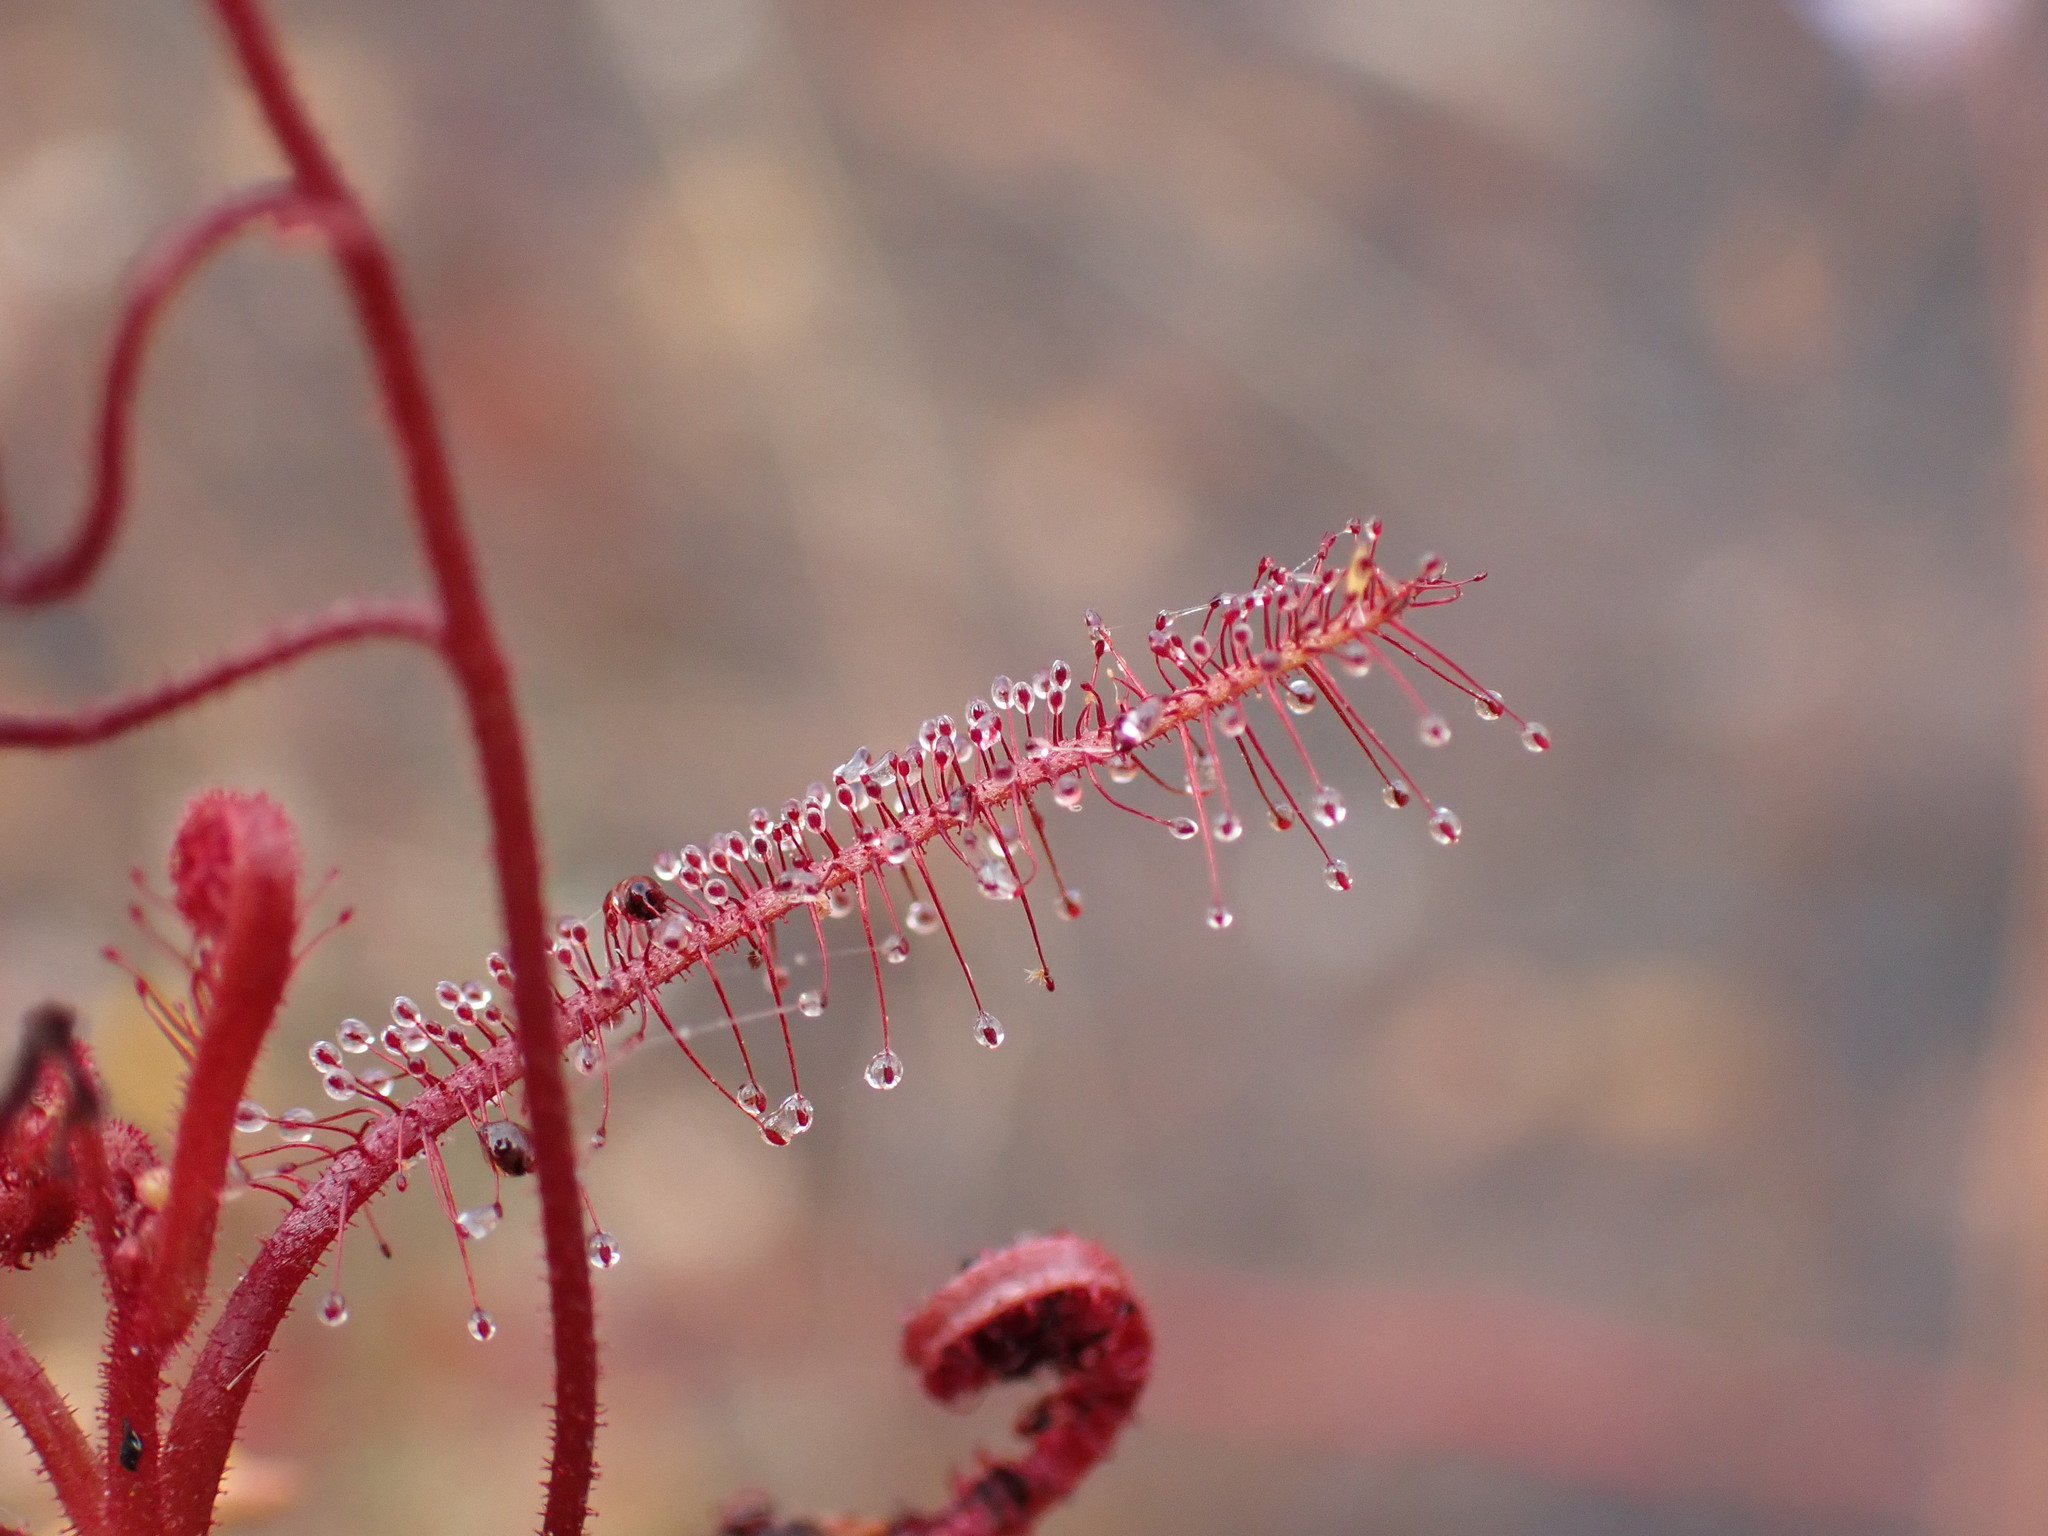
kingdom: Plantae
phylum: Tracheophyta
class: Magnoliopsida
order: Caryophyllales
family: Droseraceae
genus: Drosera
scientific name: Drosera indica
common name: Indian sundew
